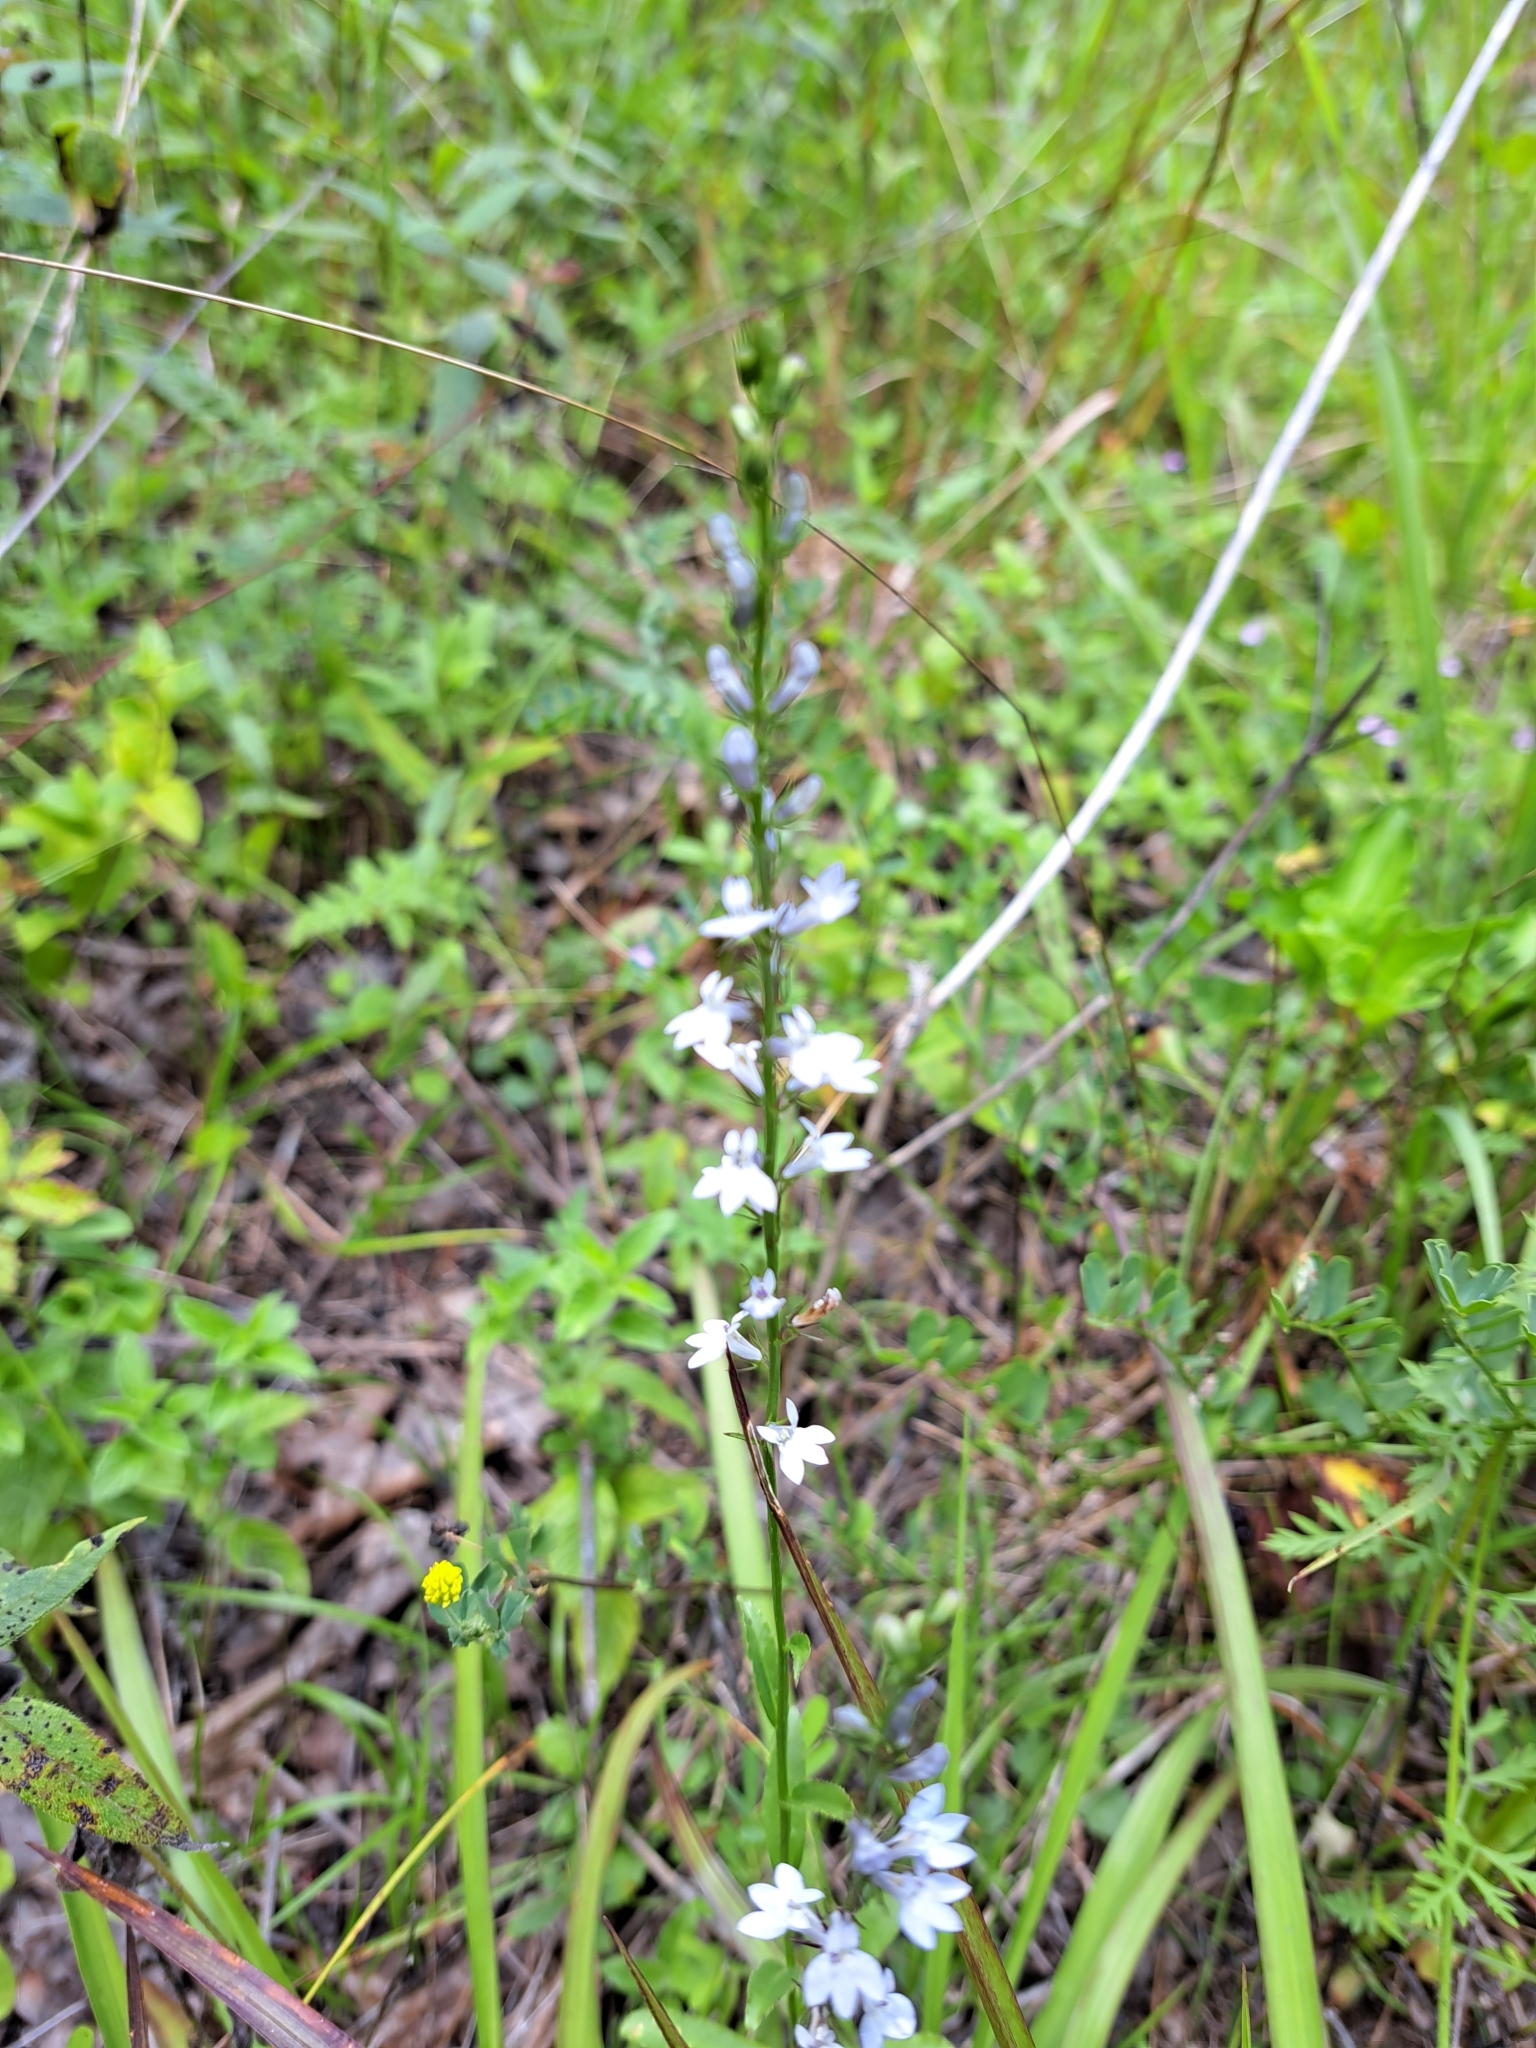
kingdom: Plantae
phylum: Tracheophyta
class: Magnoliopsida
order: Asterales
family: Campanulaceae
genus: Lobelia
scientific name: Lobelia spicata
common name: Pale-spike lobelia
